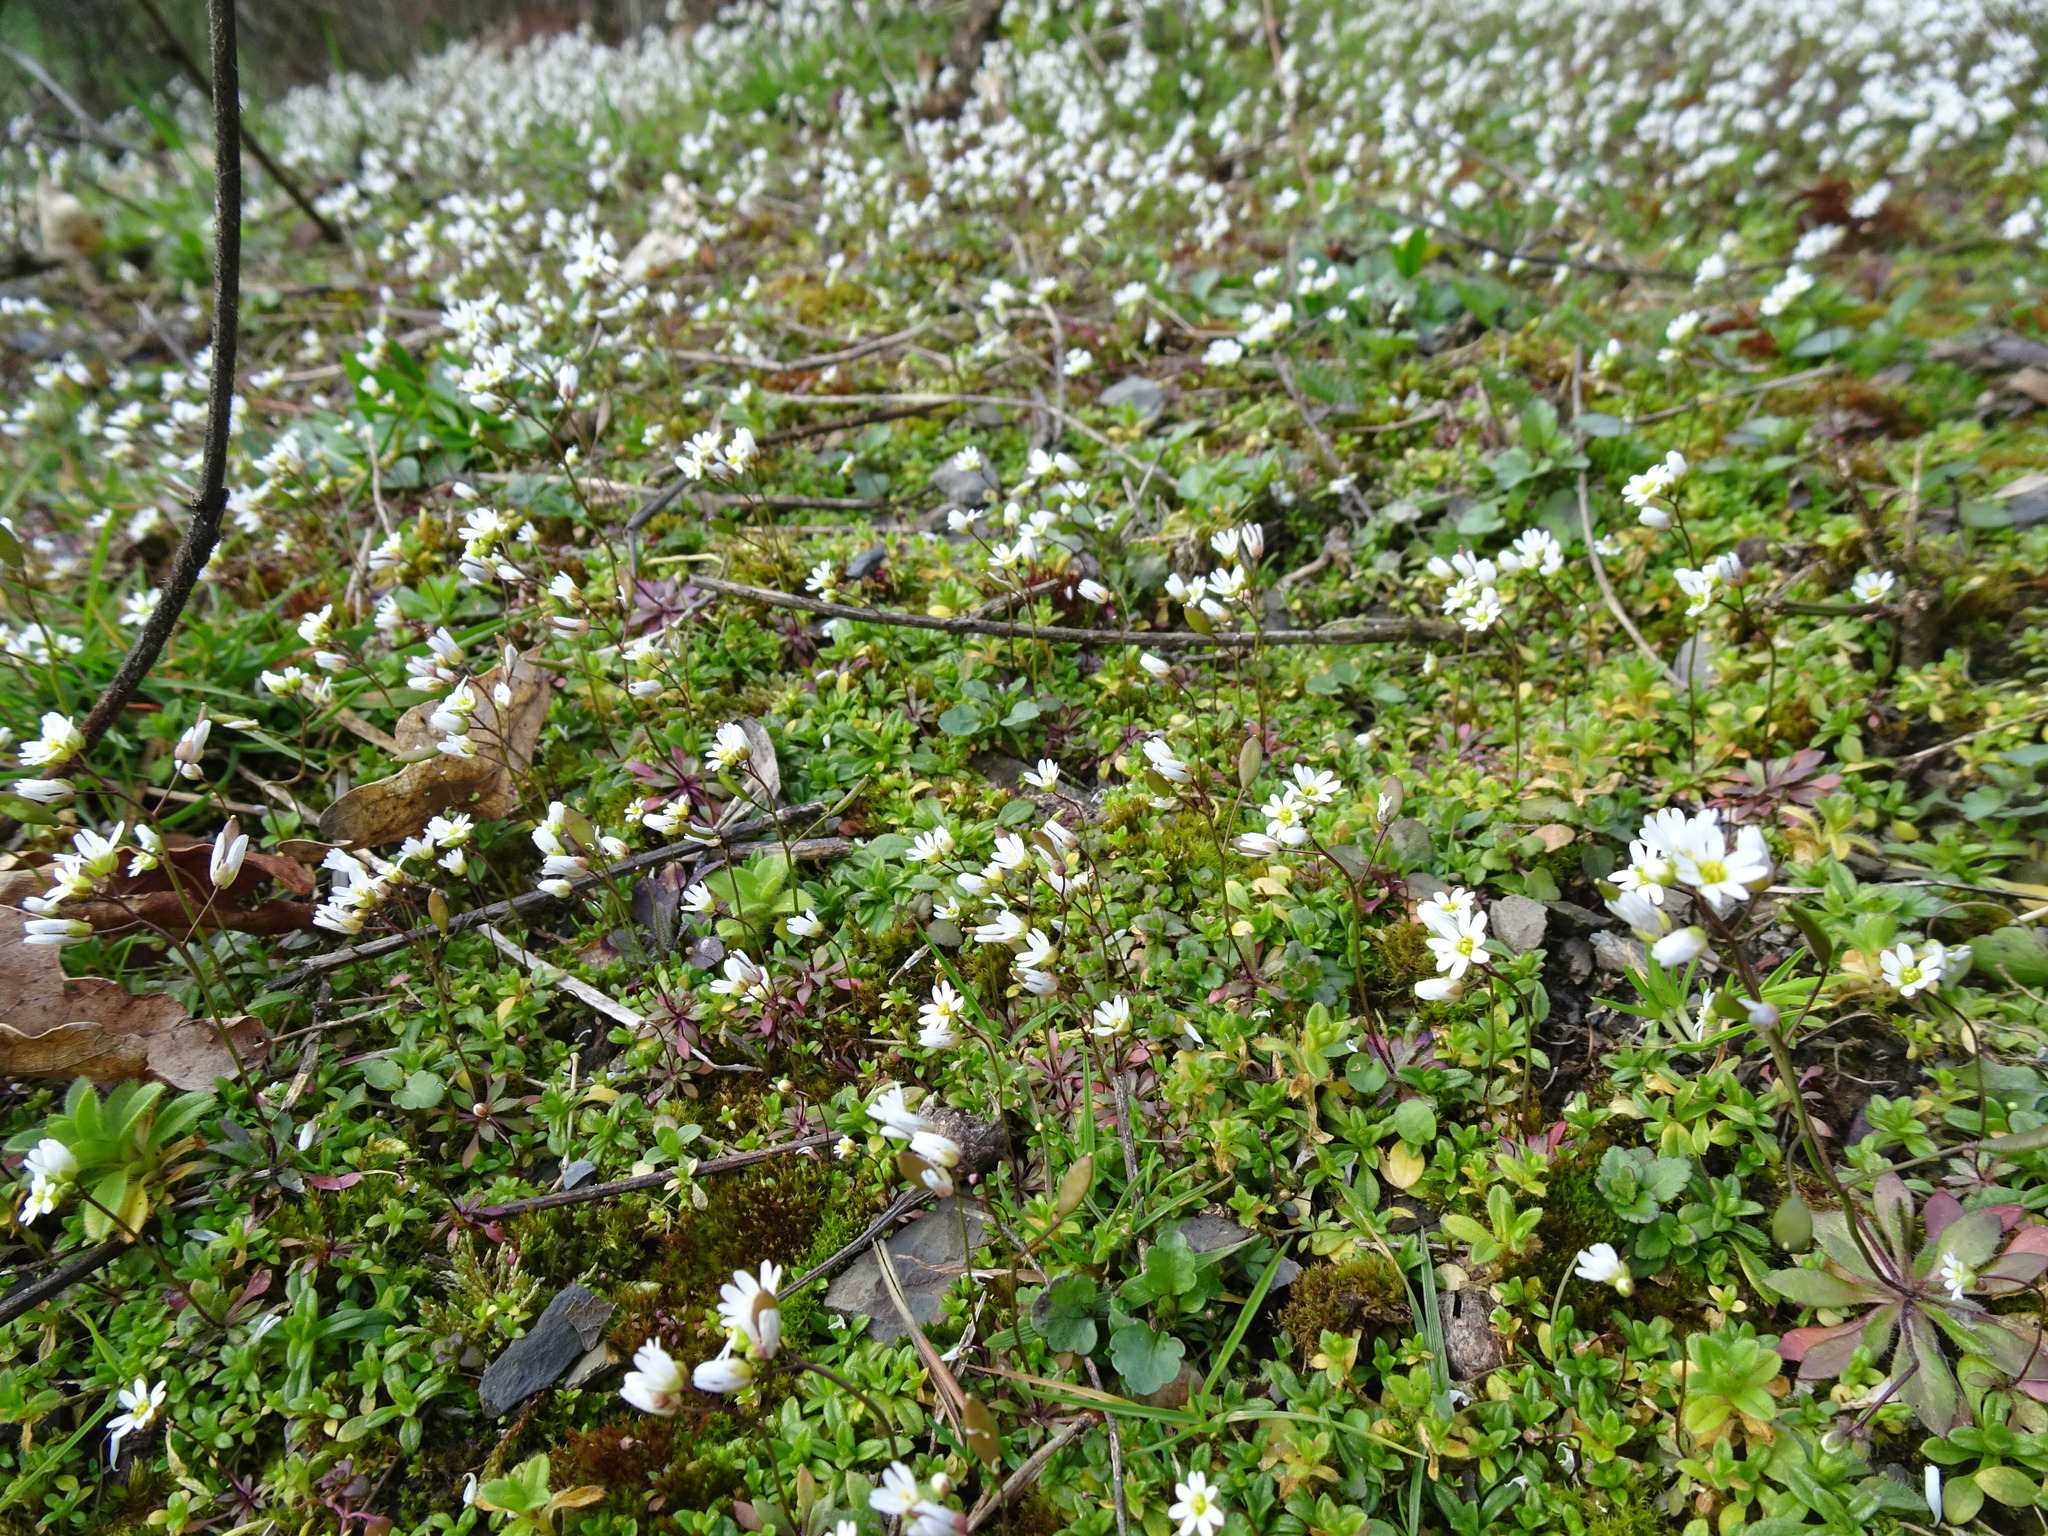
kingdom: Plantae
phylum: Tracheophyta
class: Magnoliopsida
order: Brassicales
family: Brassicaceae
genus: Draba
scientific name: Draba verna
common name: Spring draba
